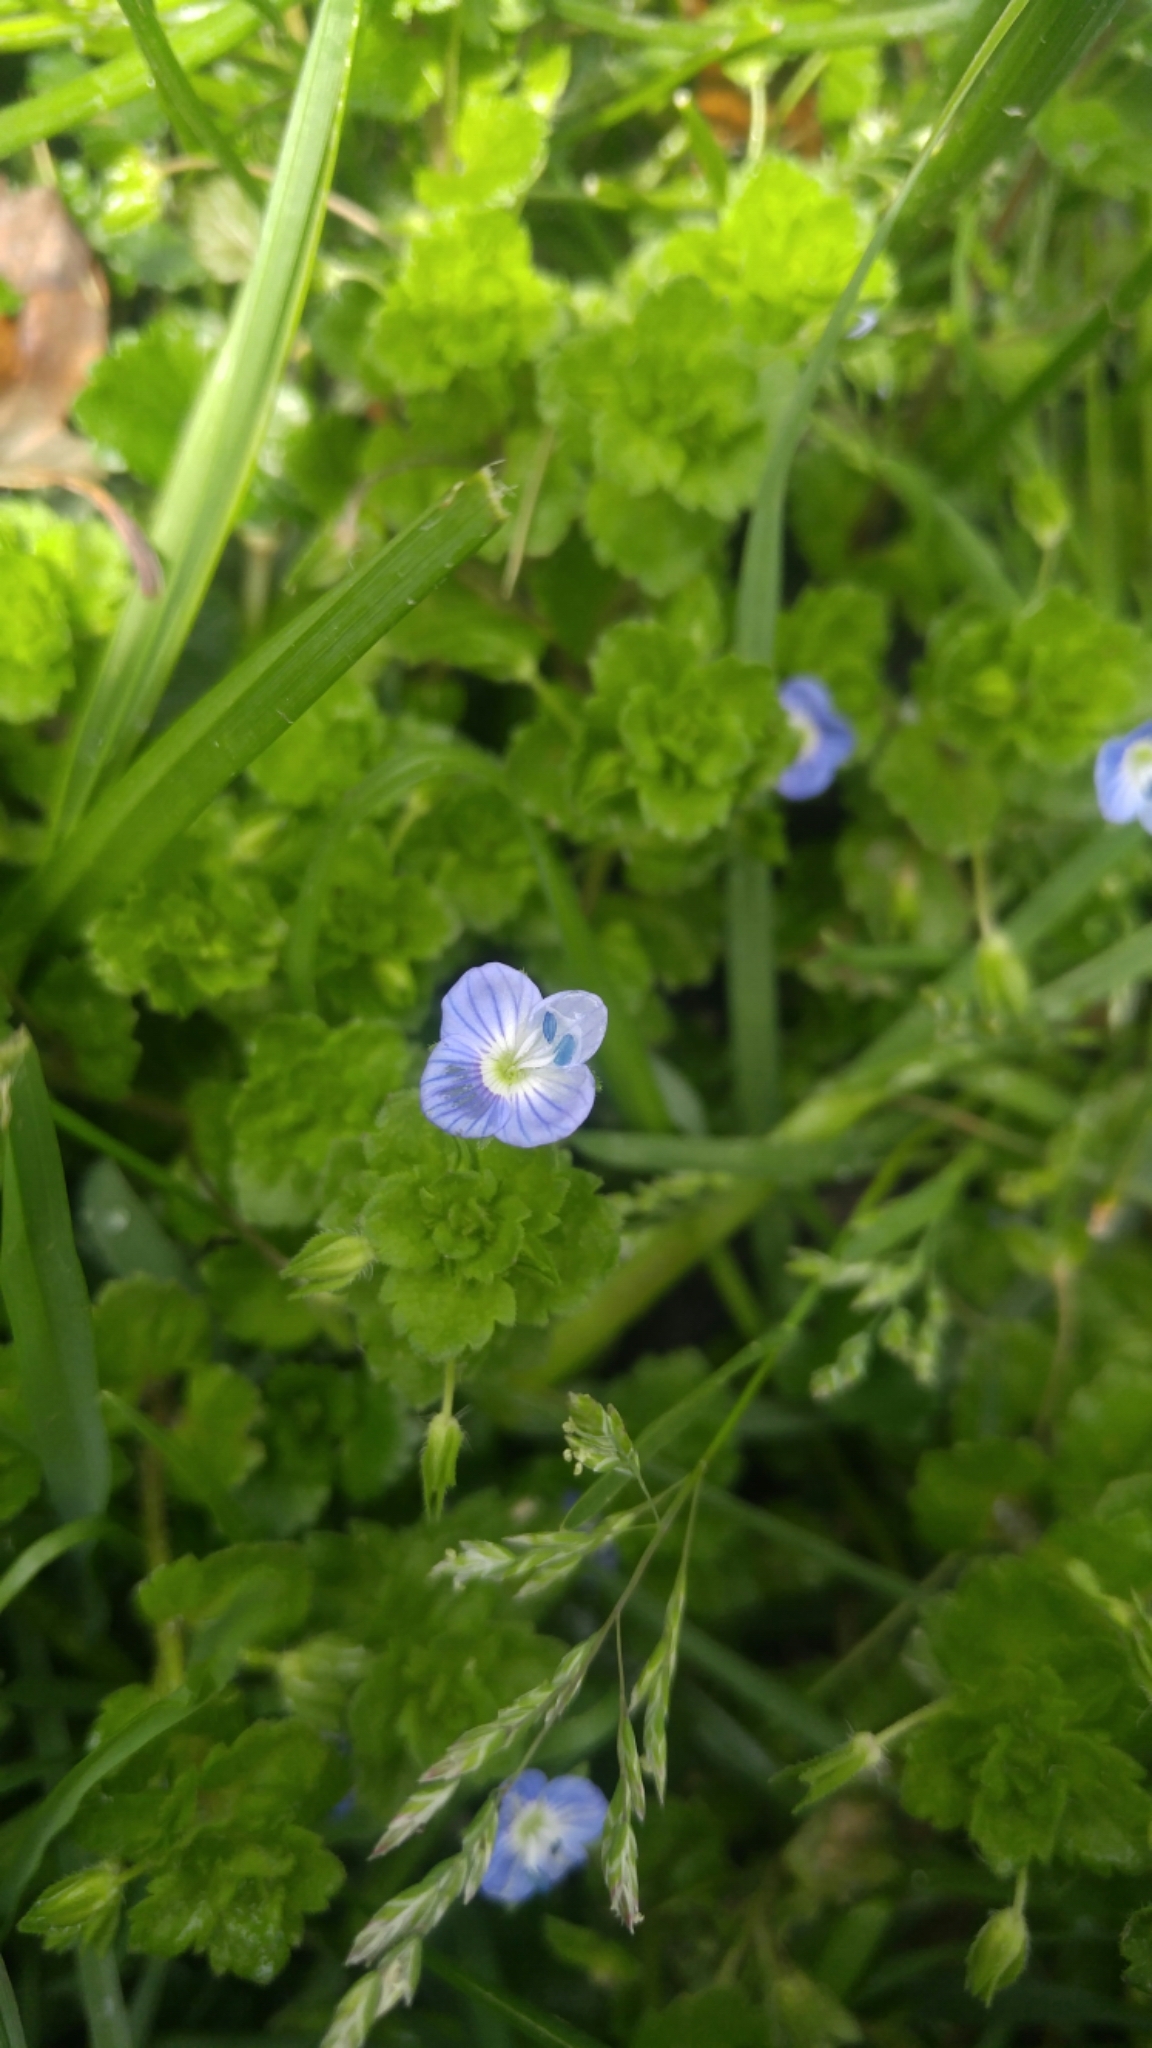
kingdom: Plantae
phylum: Tracheophyta
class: Magnoliopsida
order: Lamiales
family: Plantaginaceae
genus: Veronica
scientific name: Veronica persica
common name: Common field-speedwell
